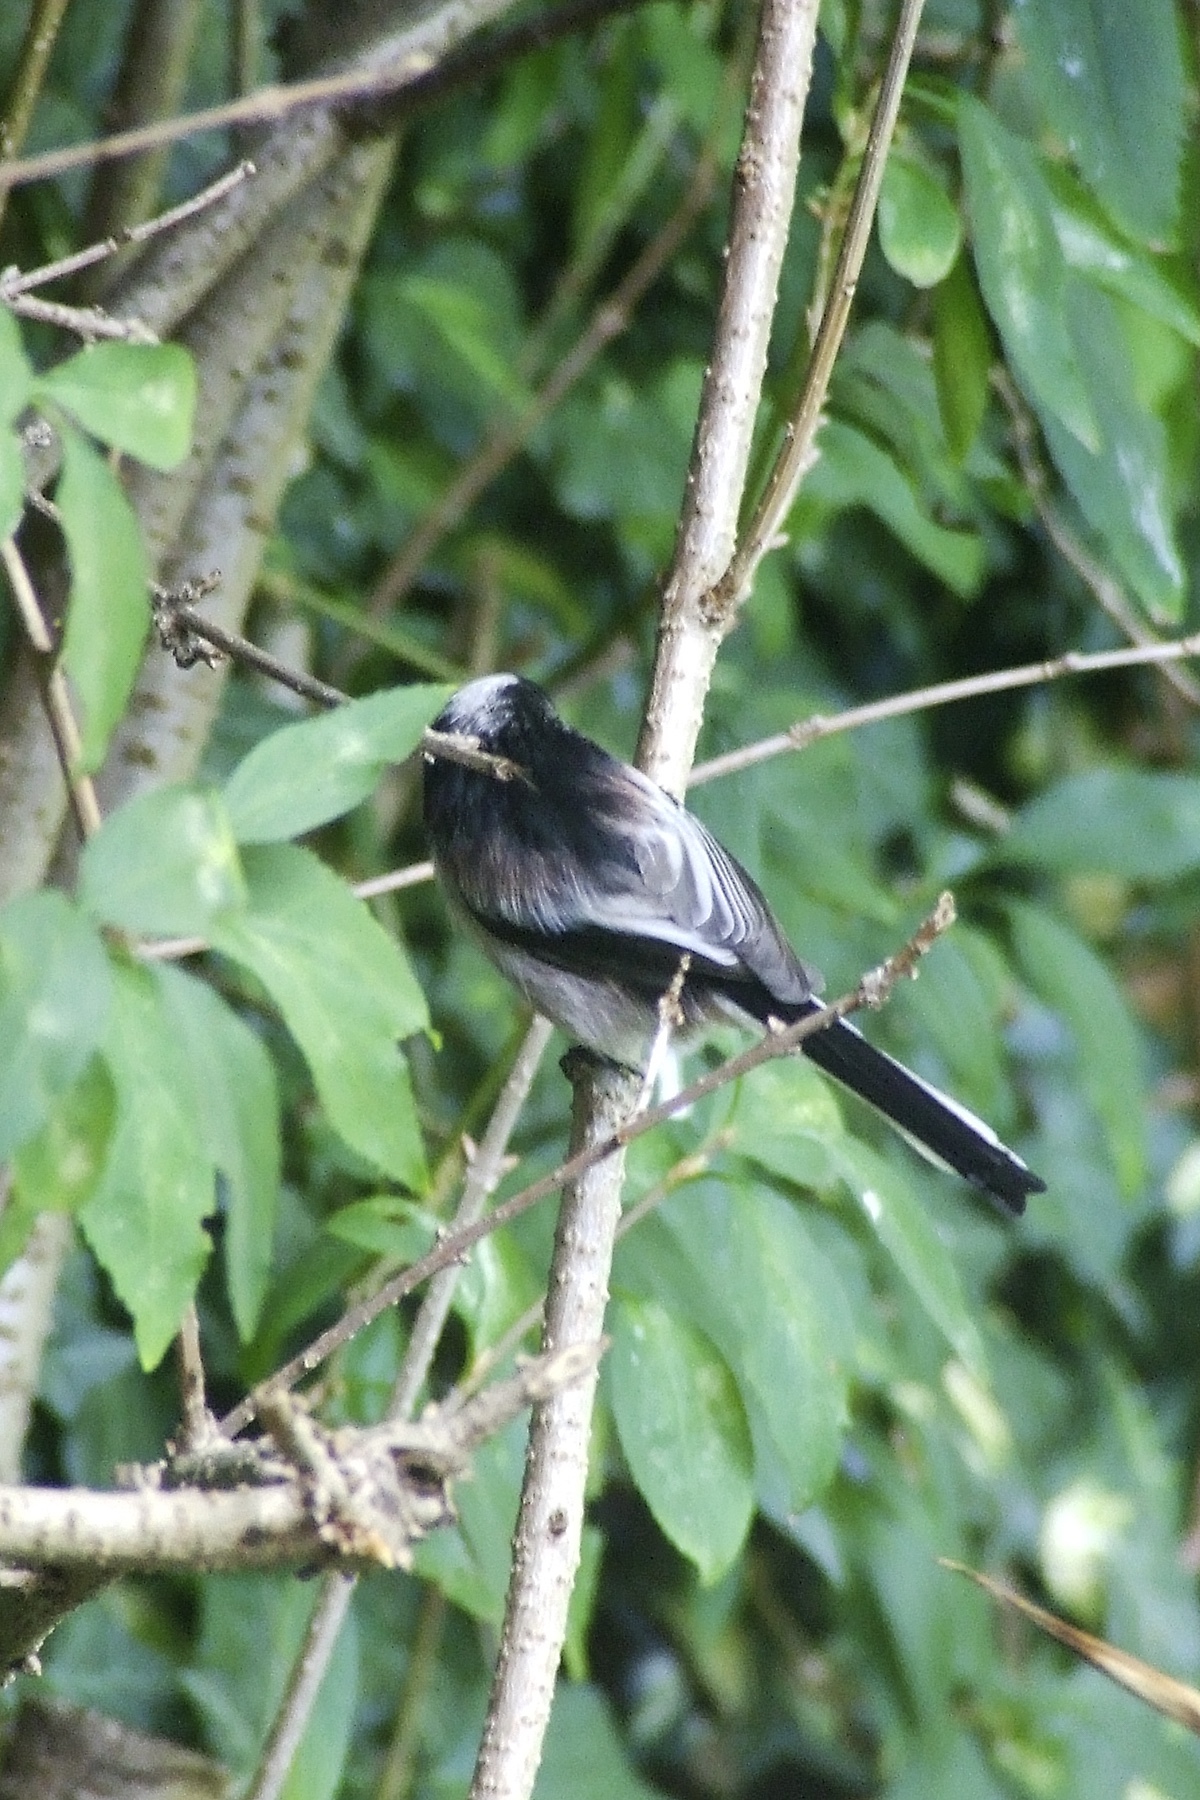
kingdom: Animalia
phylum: Chordata
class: Aves
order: Passeriformes
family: Aegithalidae
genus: Aegithalos
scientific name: Aegithalos caudatus
